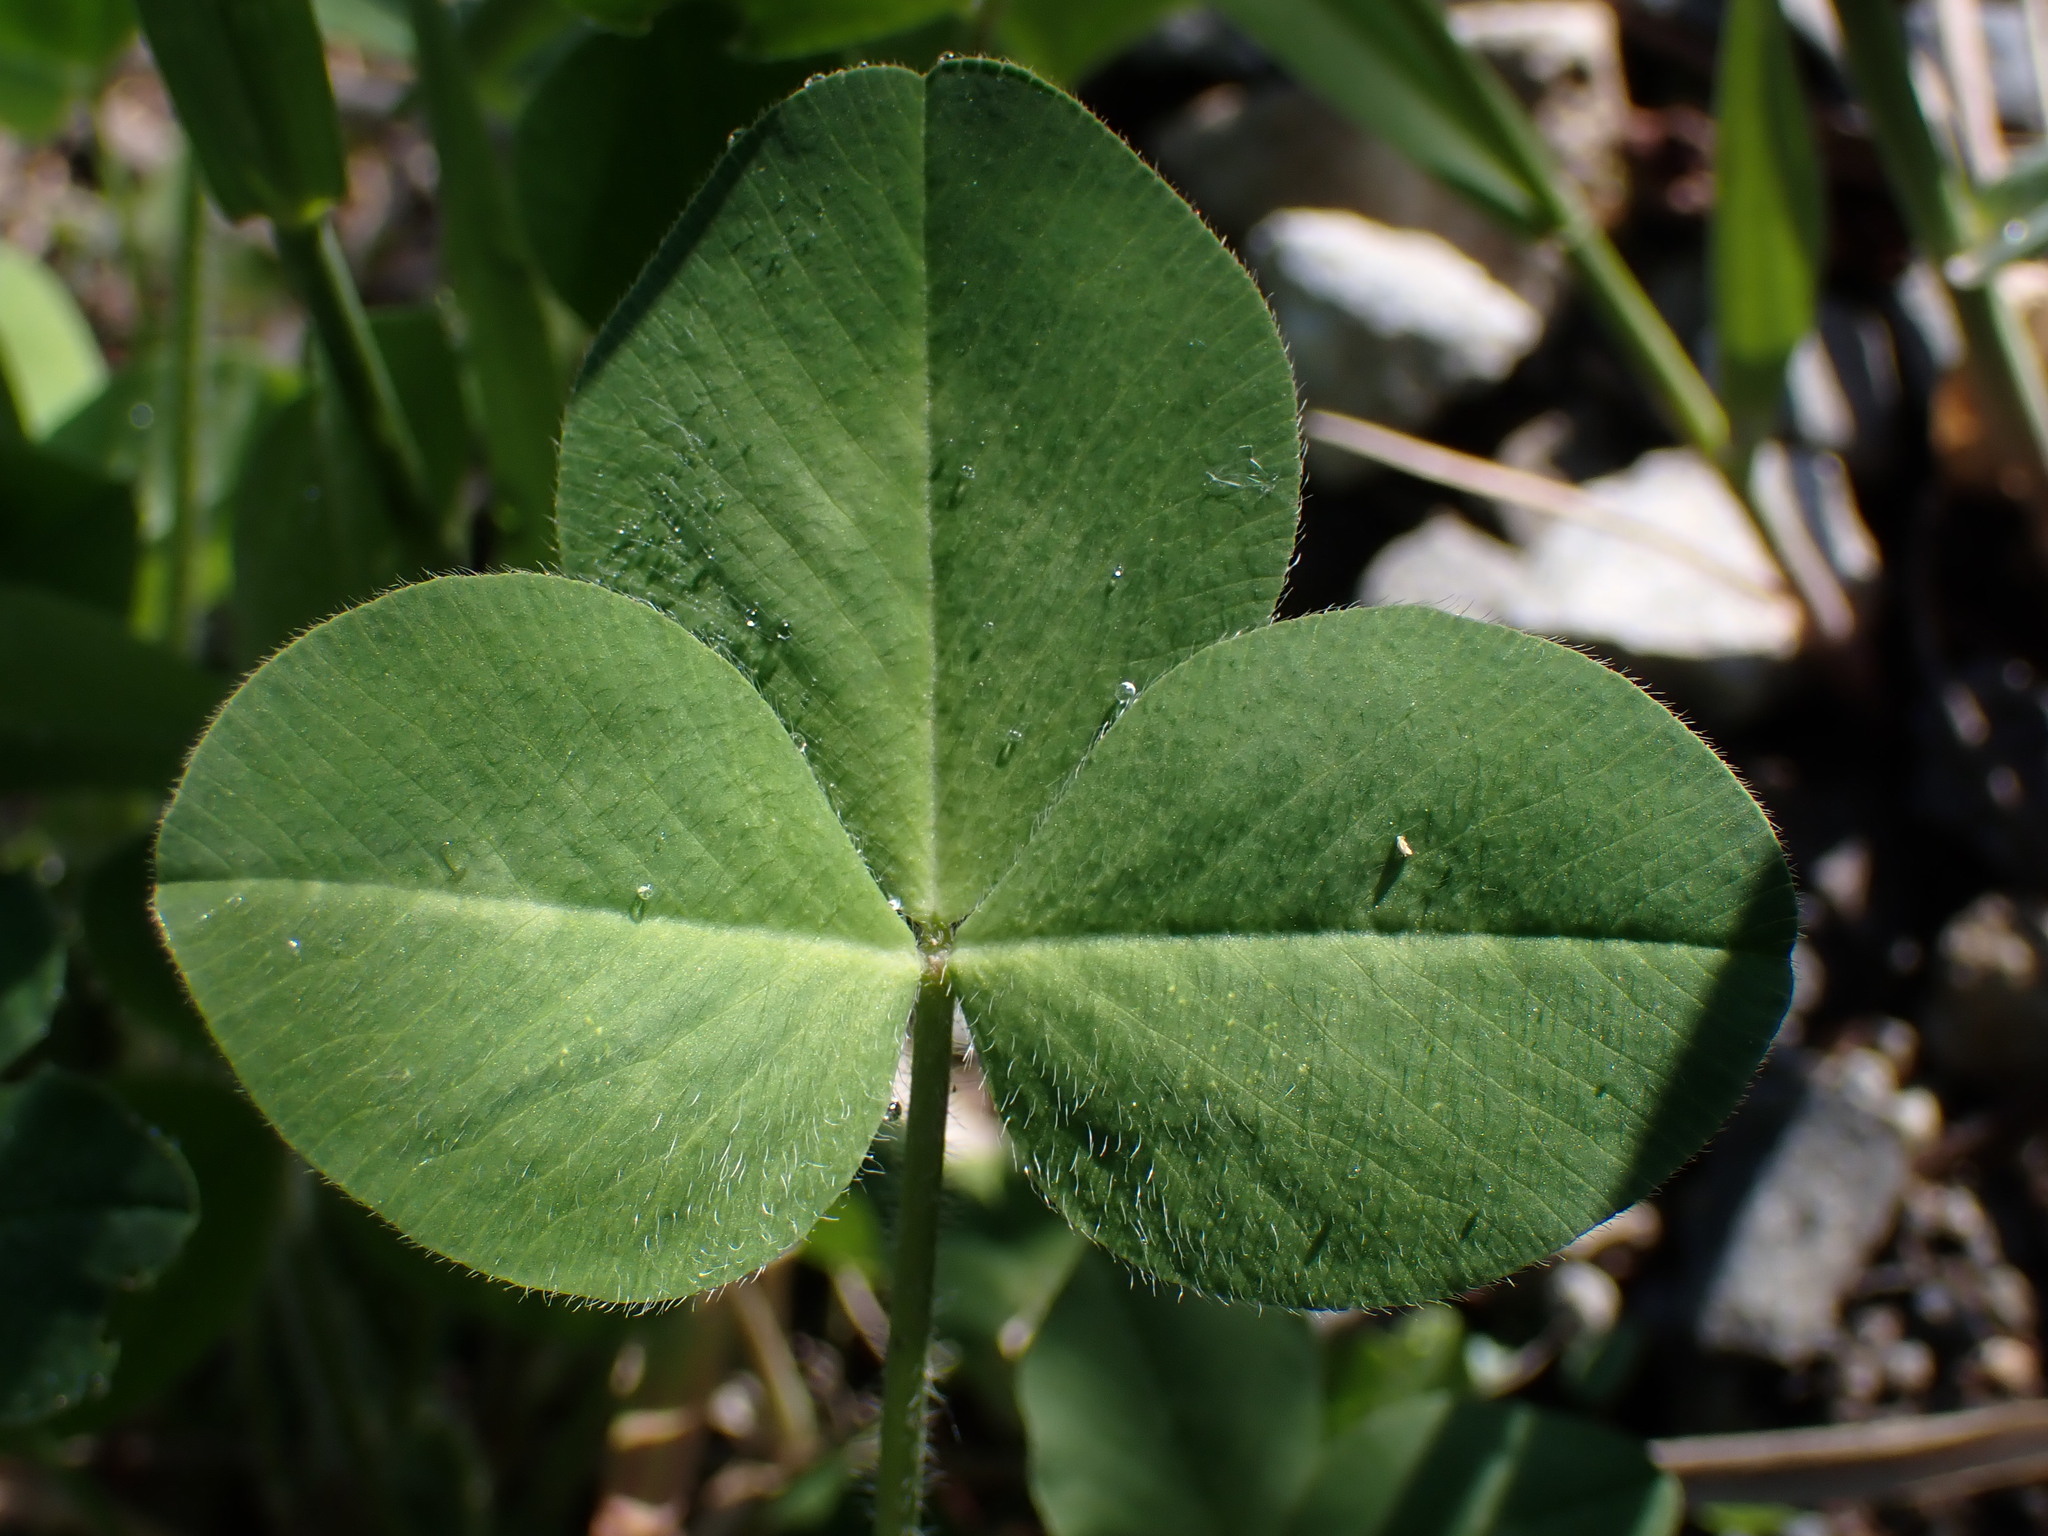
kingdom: Plantae
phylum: Tracheophyta
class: Magnoliopsida
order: Fabales
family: Fabaceae
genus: Trifolium
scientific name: Trifolium pratense
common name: Red clover
